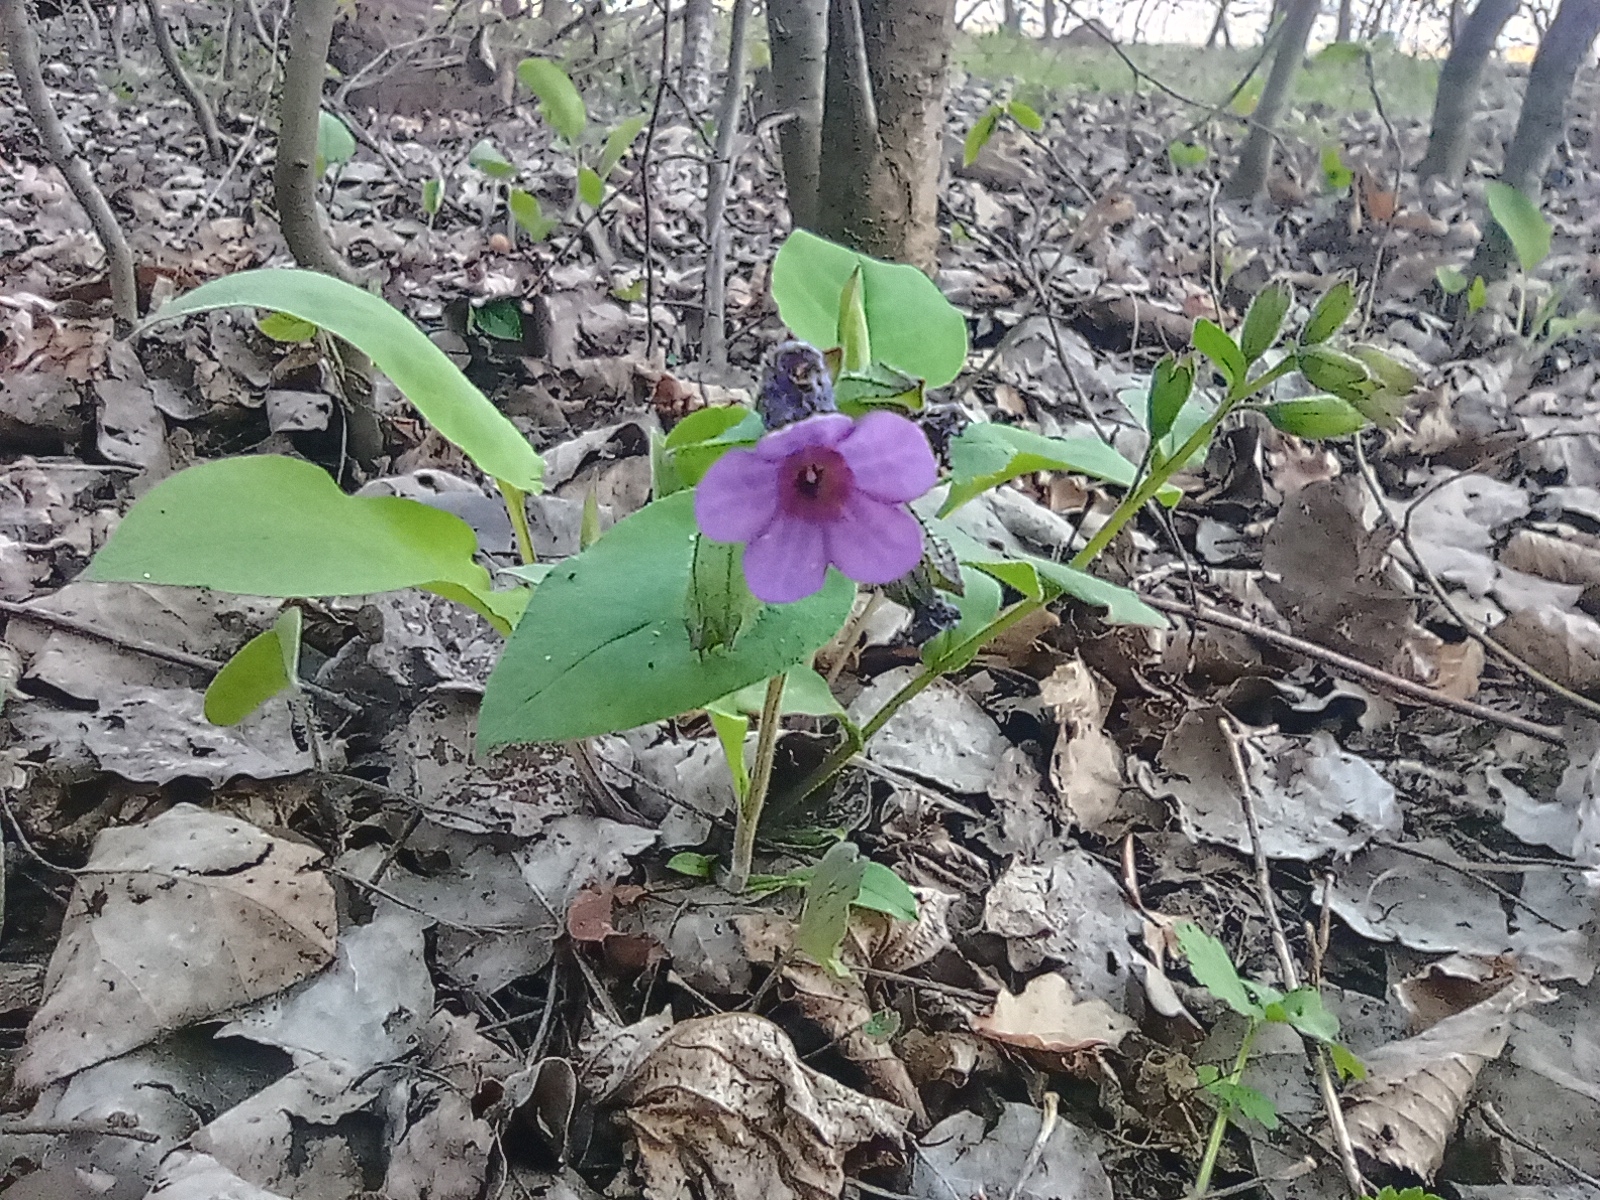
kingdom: Plantae
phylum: Tracheophyta
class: Magnoliopsida
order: Boraginales
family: Boraginaceae
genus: Pulmonaria
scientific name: Pulmonaria obscura
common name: Suffolk lungwort
